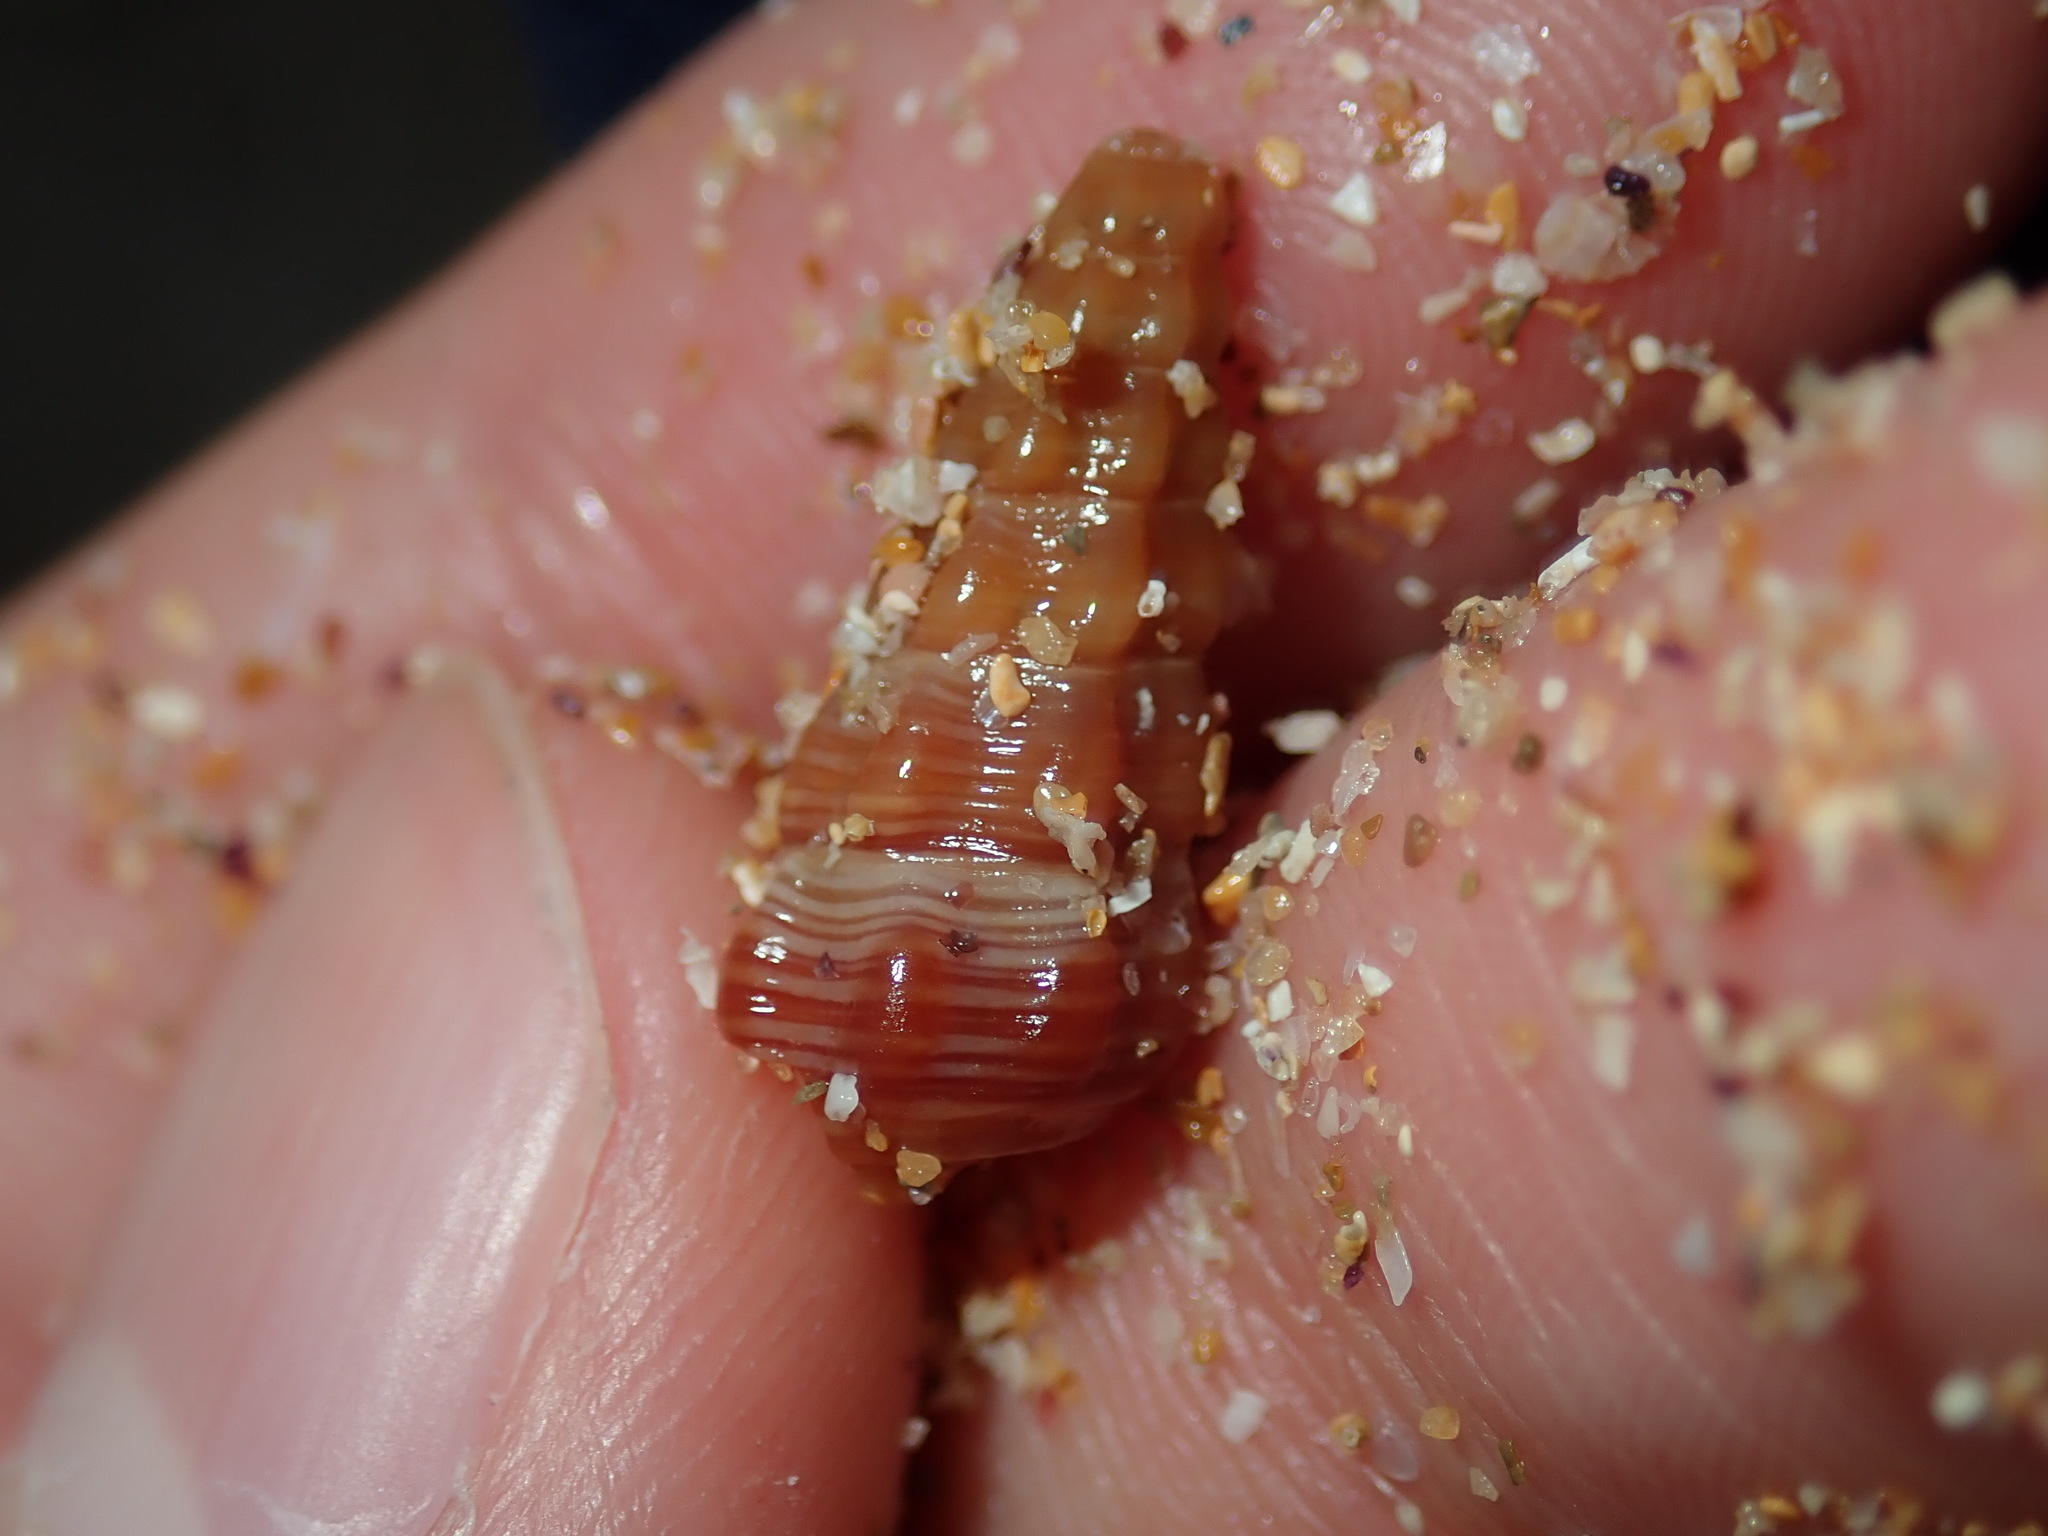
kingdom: Animalia
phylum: Mollusca
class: Gastropoda
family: Batillariidae
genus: Batillaria
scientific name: Batillaria australis
